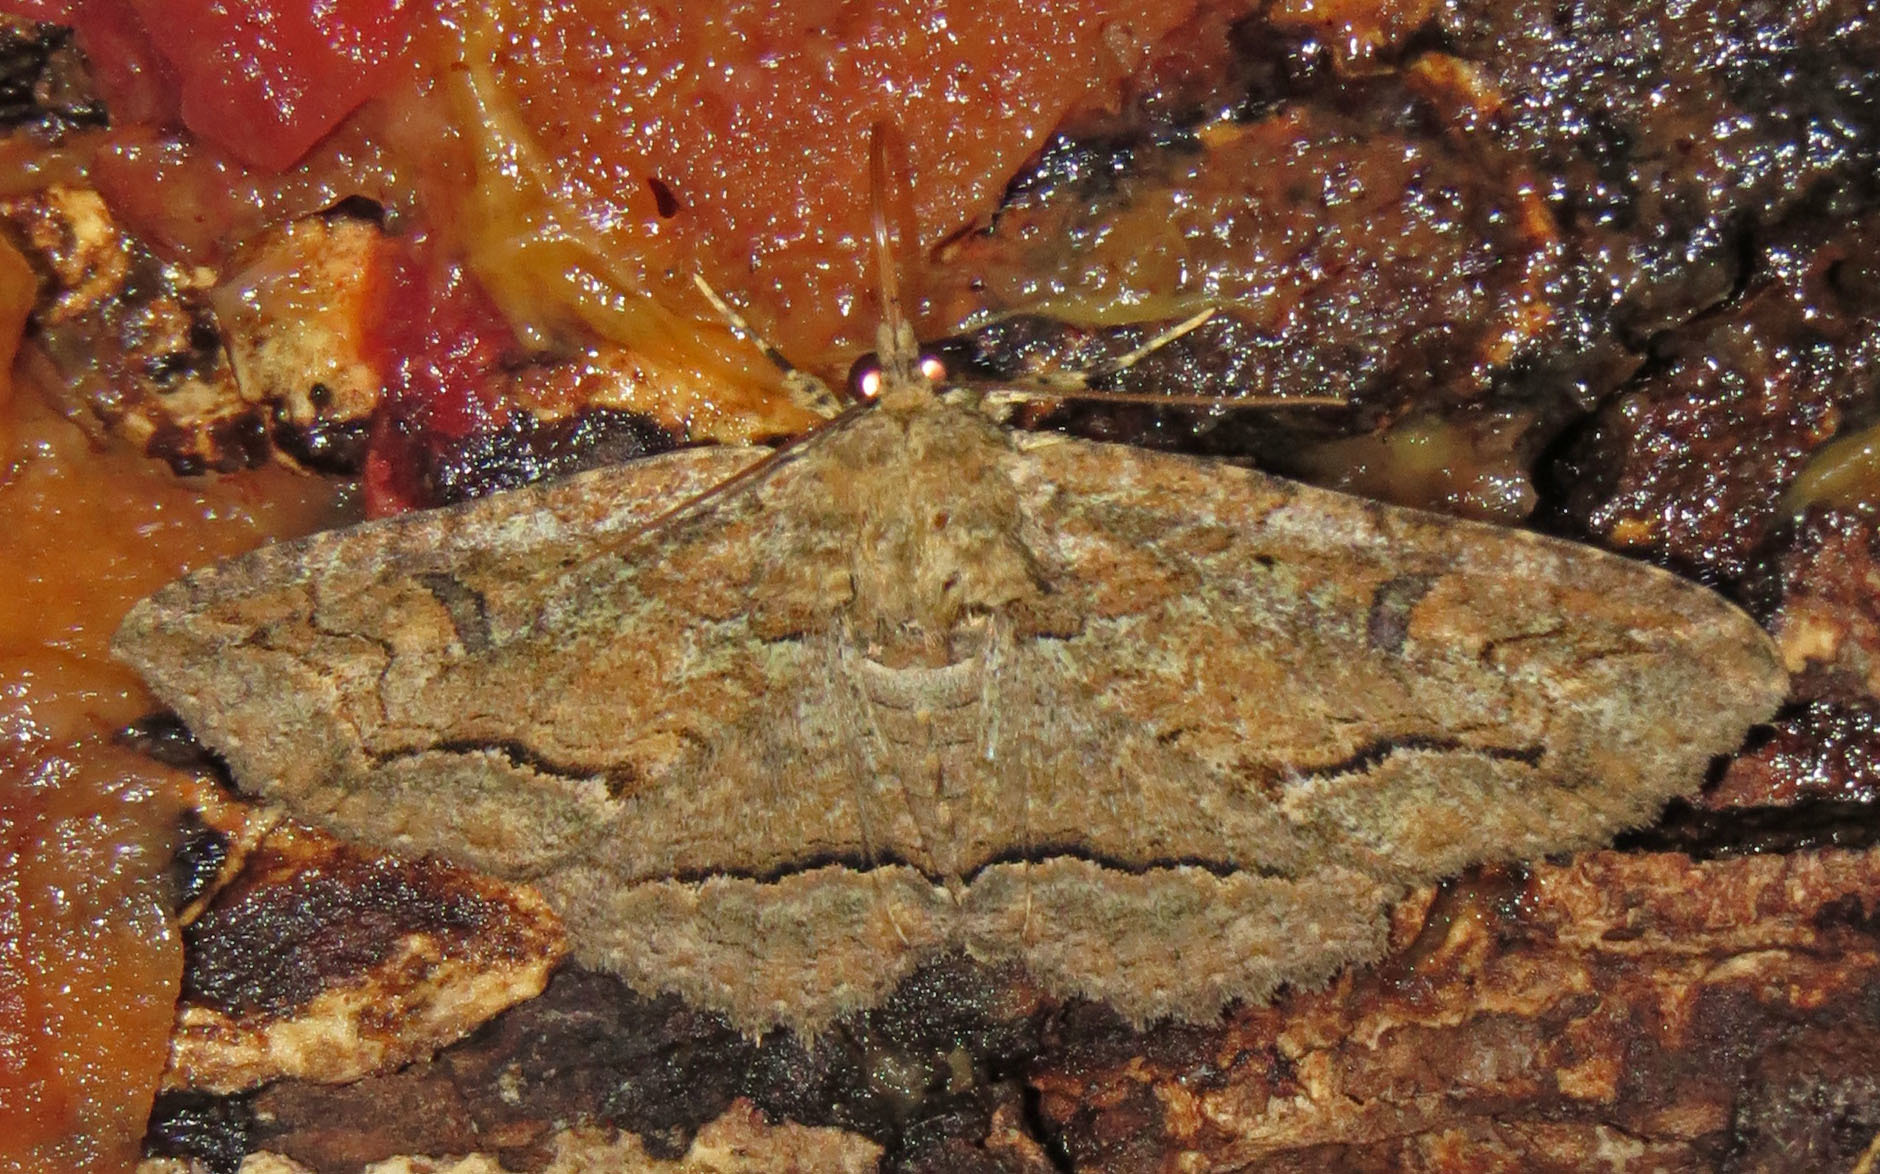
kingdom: Animalia
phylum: Arthropoda
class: Insecta
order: Lepidoptera
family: Erebidae
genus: Zale
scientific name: Zale galbanata
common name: Maple zale
